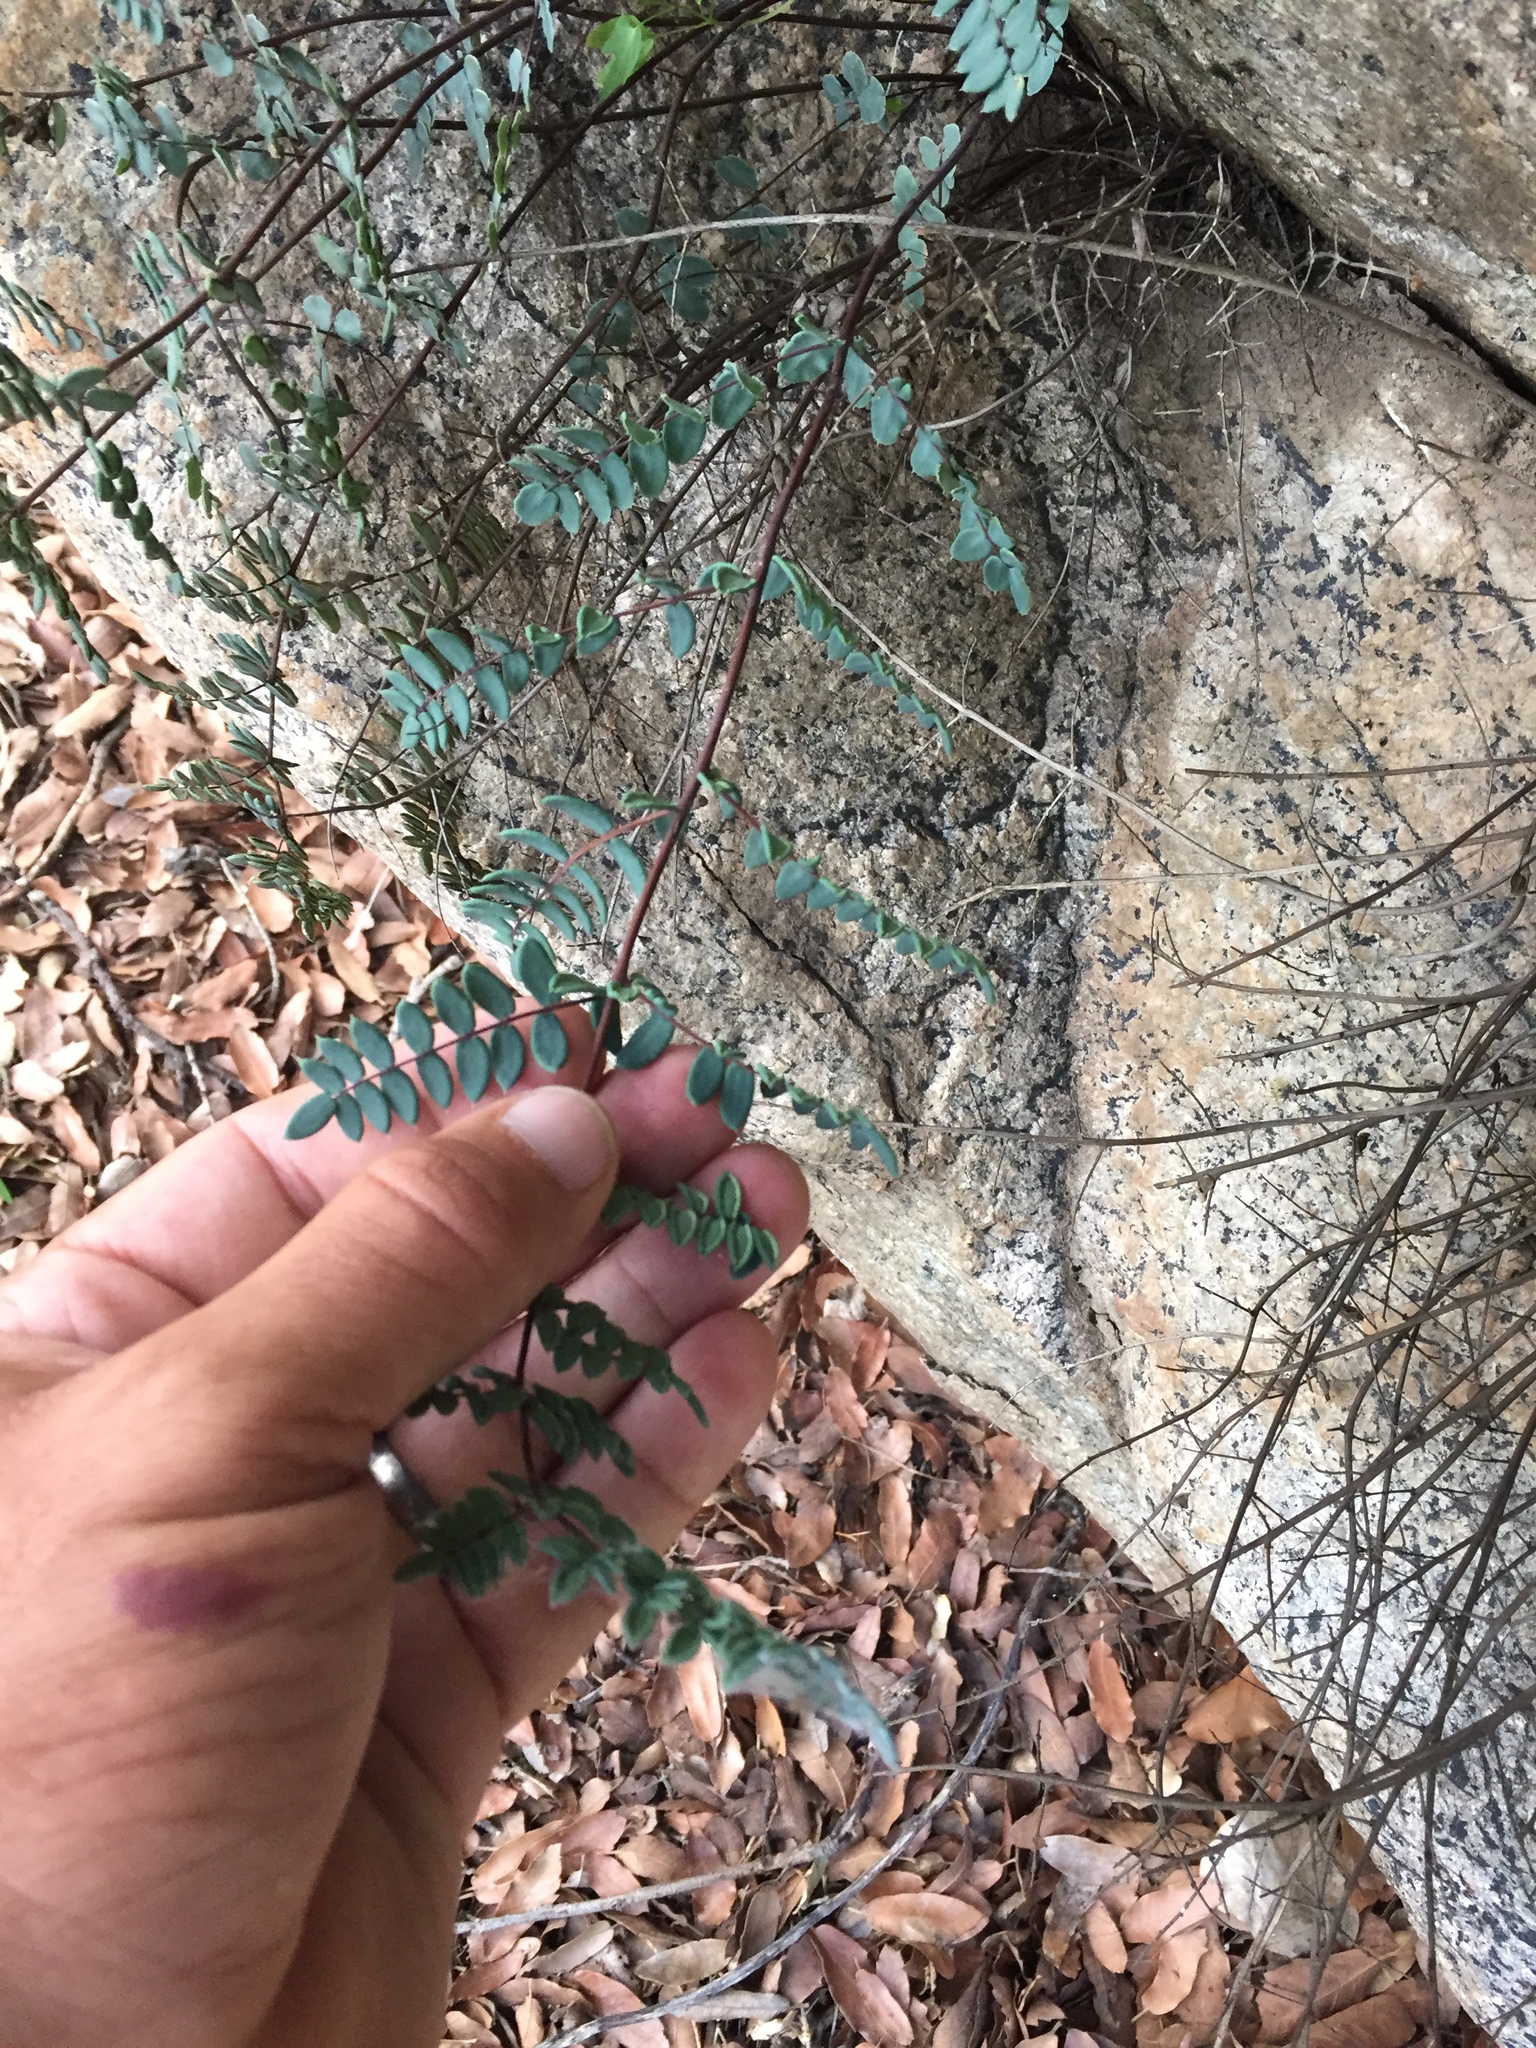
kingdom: Plantae
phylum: Tracheophyta
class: Polypodiopsida
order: Polypodiales
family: Pteridaceae
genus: Pellaea
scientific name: Pellaea truncata
